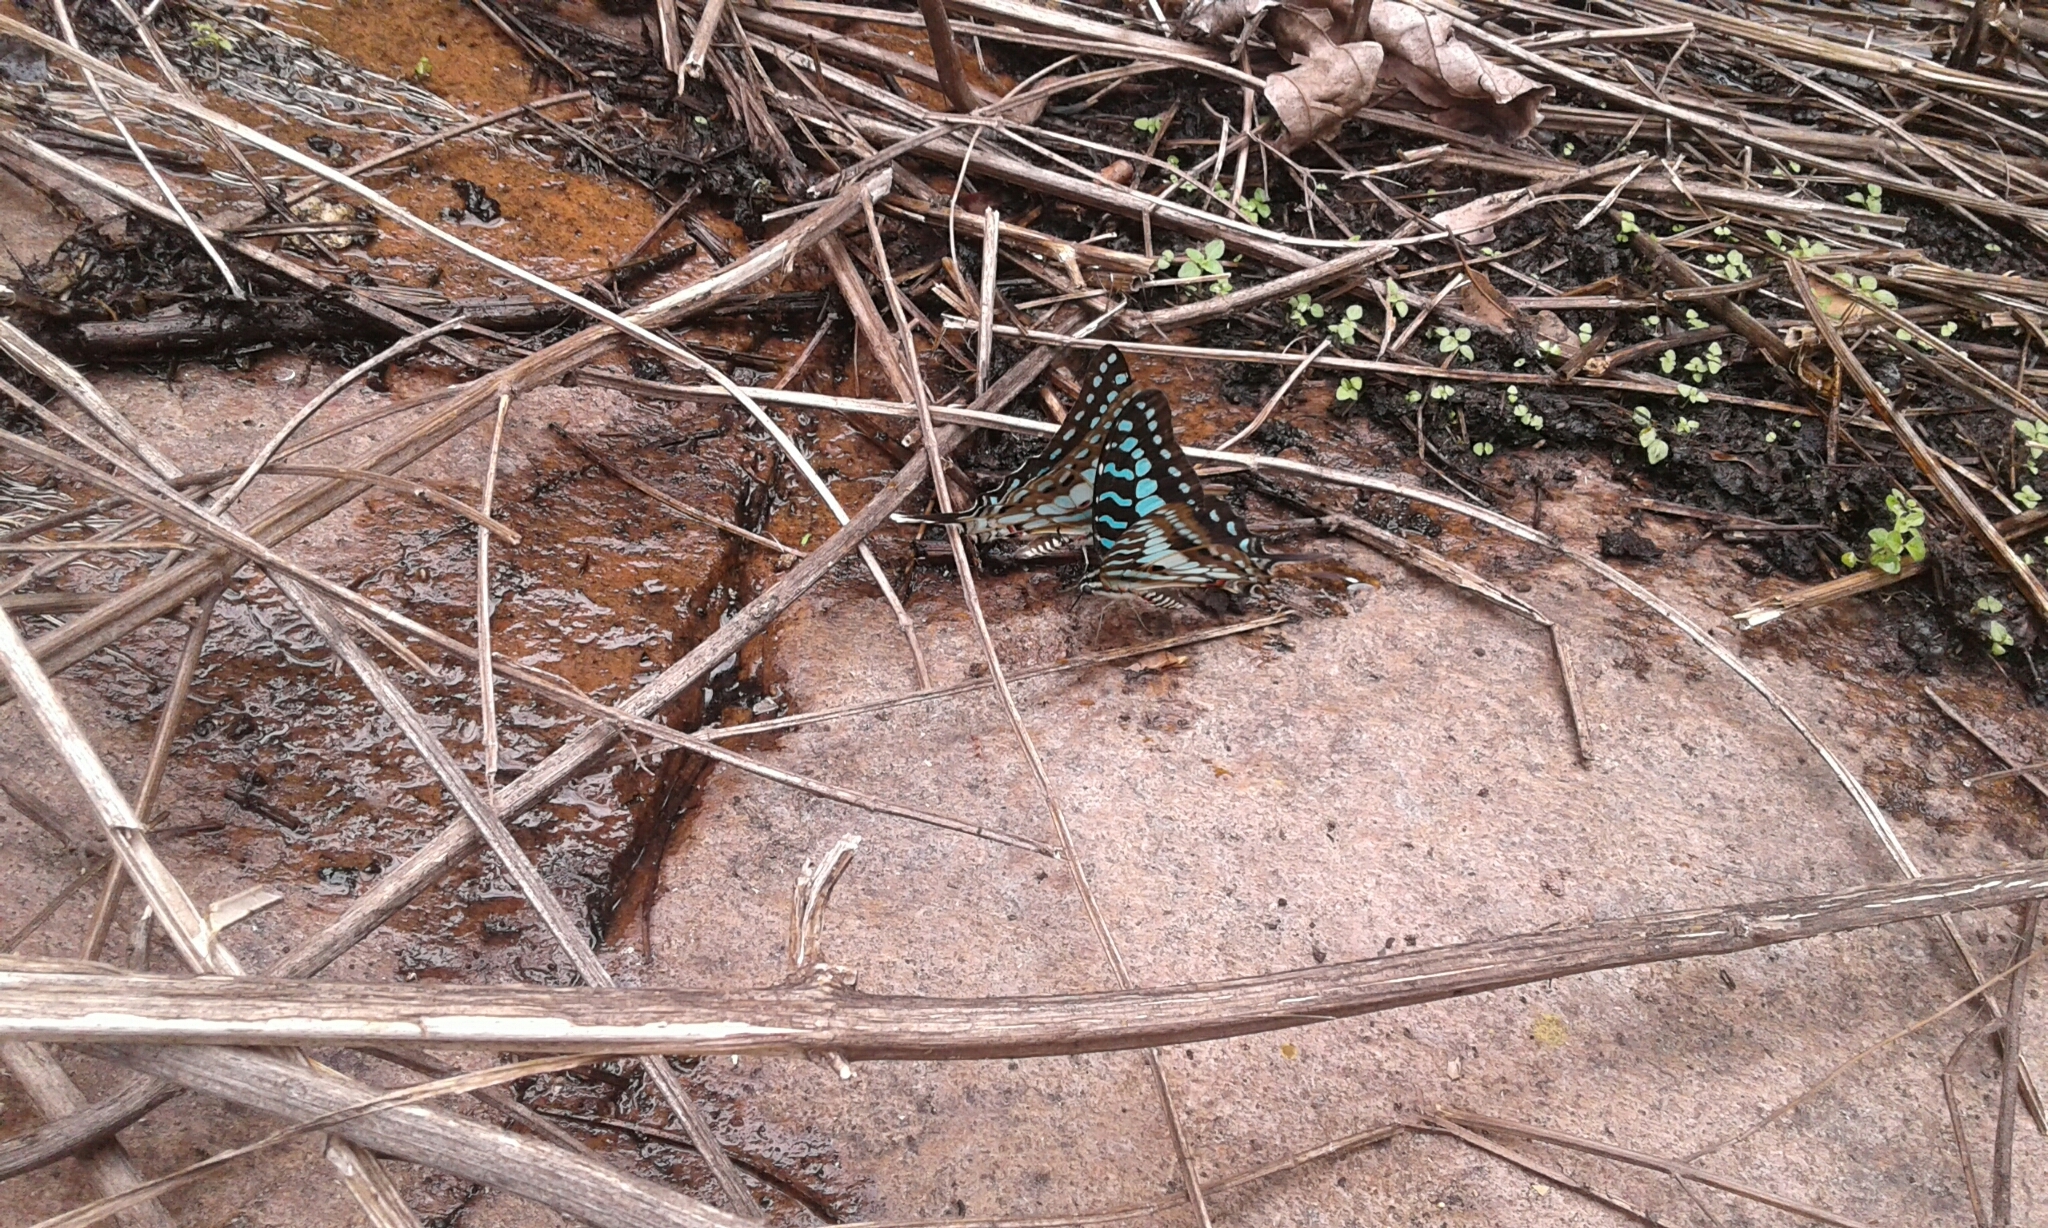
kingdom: Animalia
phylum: Arthropoda
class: Insecta
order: Lepidoptera
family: Papilionidae
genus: Graphium
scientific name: Graphium antheus
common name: Large striped swordtail
